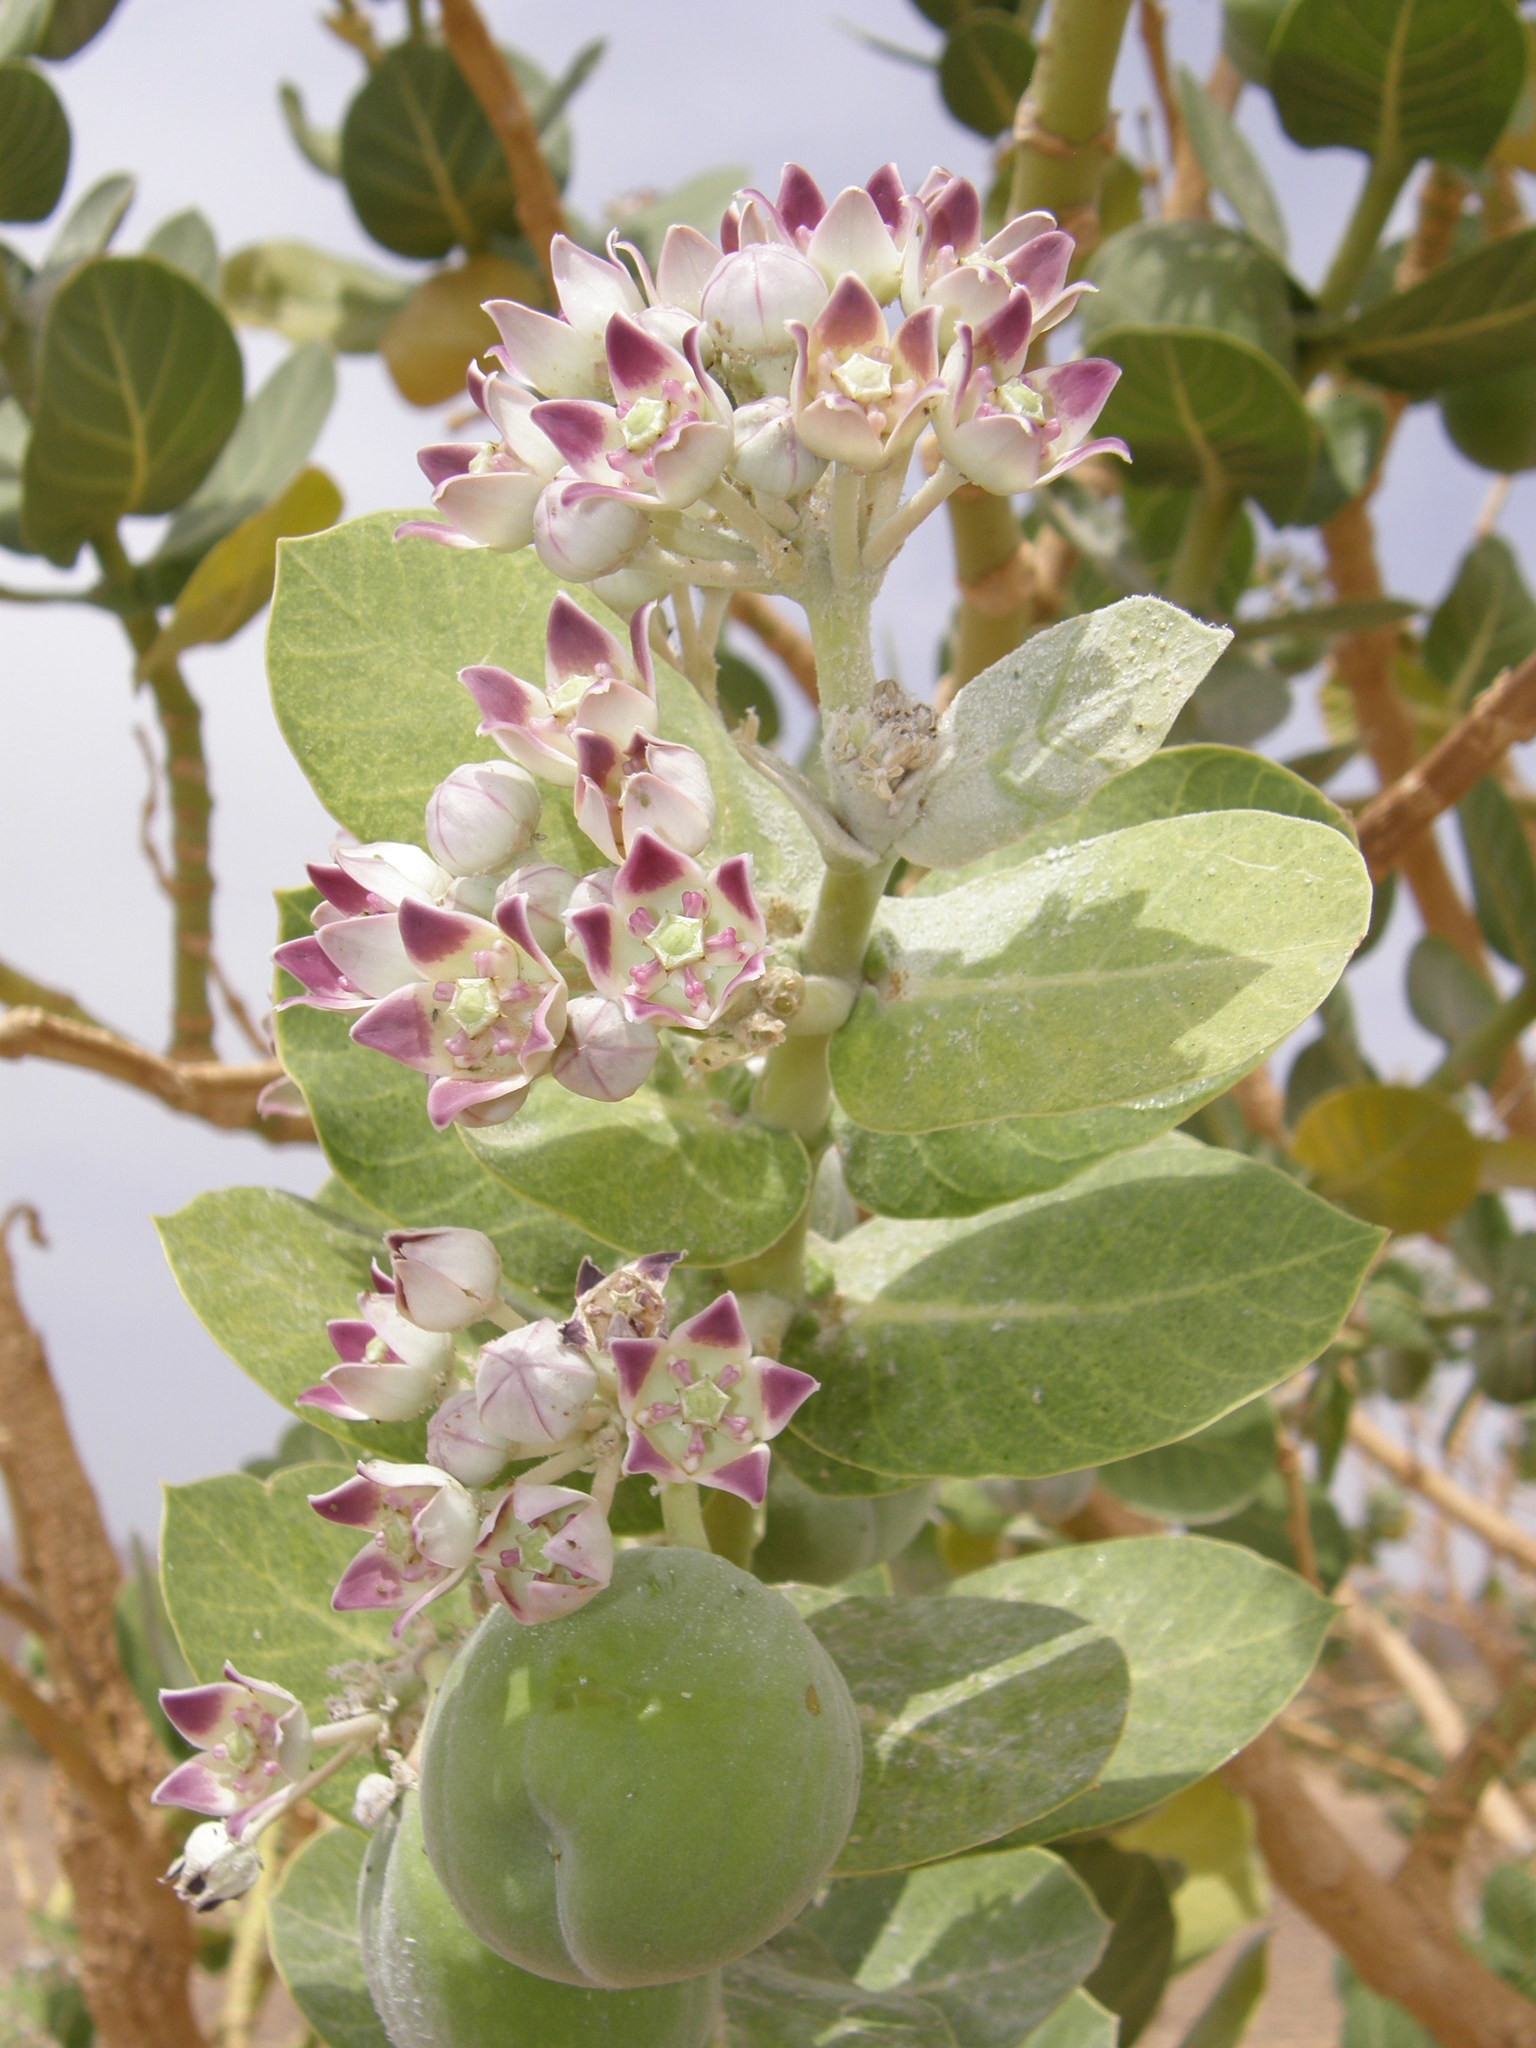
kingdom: Plantae
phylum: Tracheophyta
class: Magnoliopsida
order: Gentianales
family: Apocynaceae
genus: Calotropis
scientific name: Calotropis procera
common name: Roostertree
